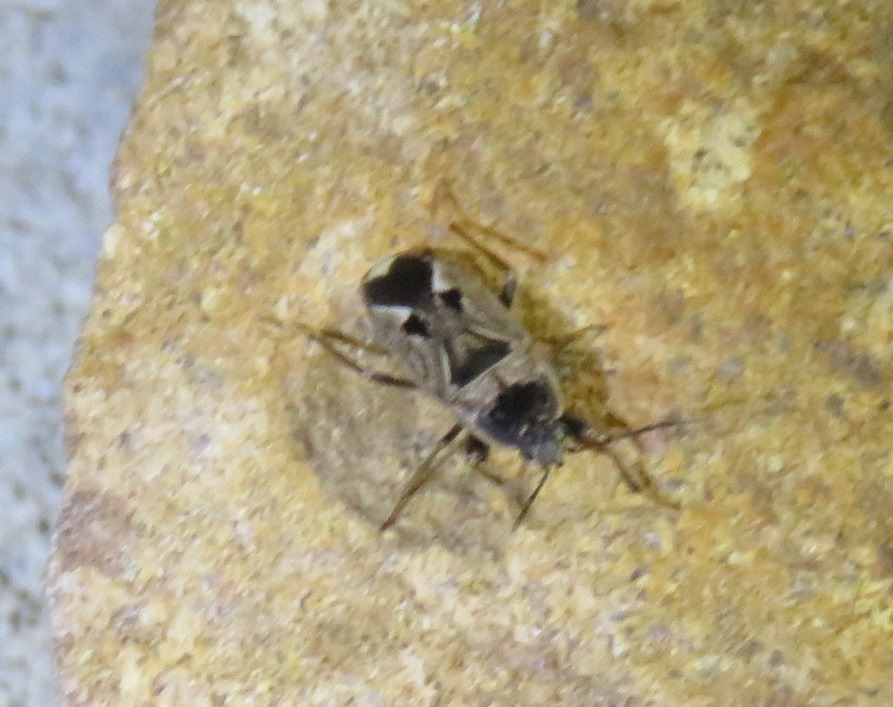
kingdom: Animalia
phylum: Arthropoda
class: Insecta
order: Hemiptera
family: Rhyparochromidae
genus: Naphius
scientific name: Naphius apicalis
